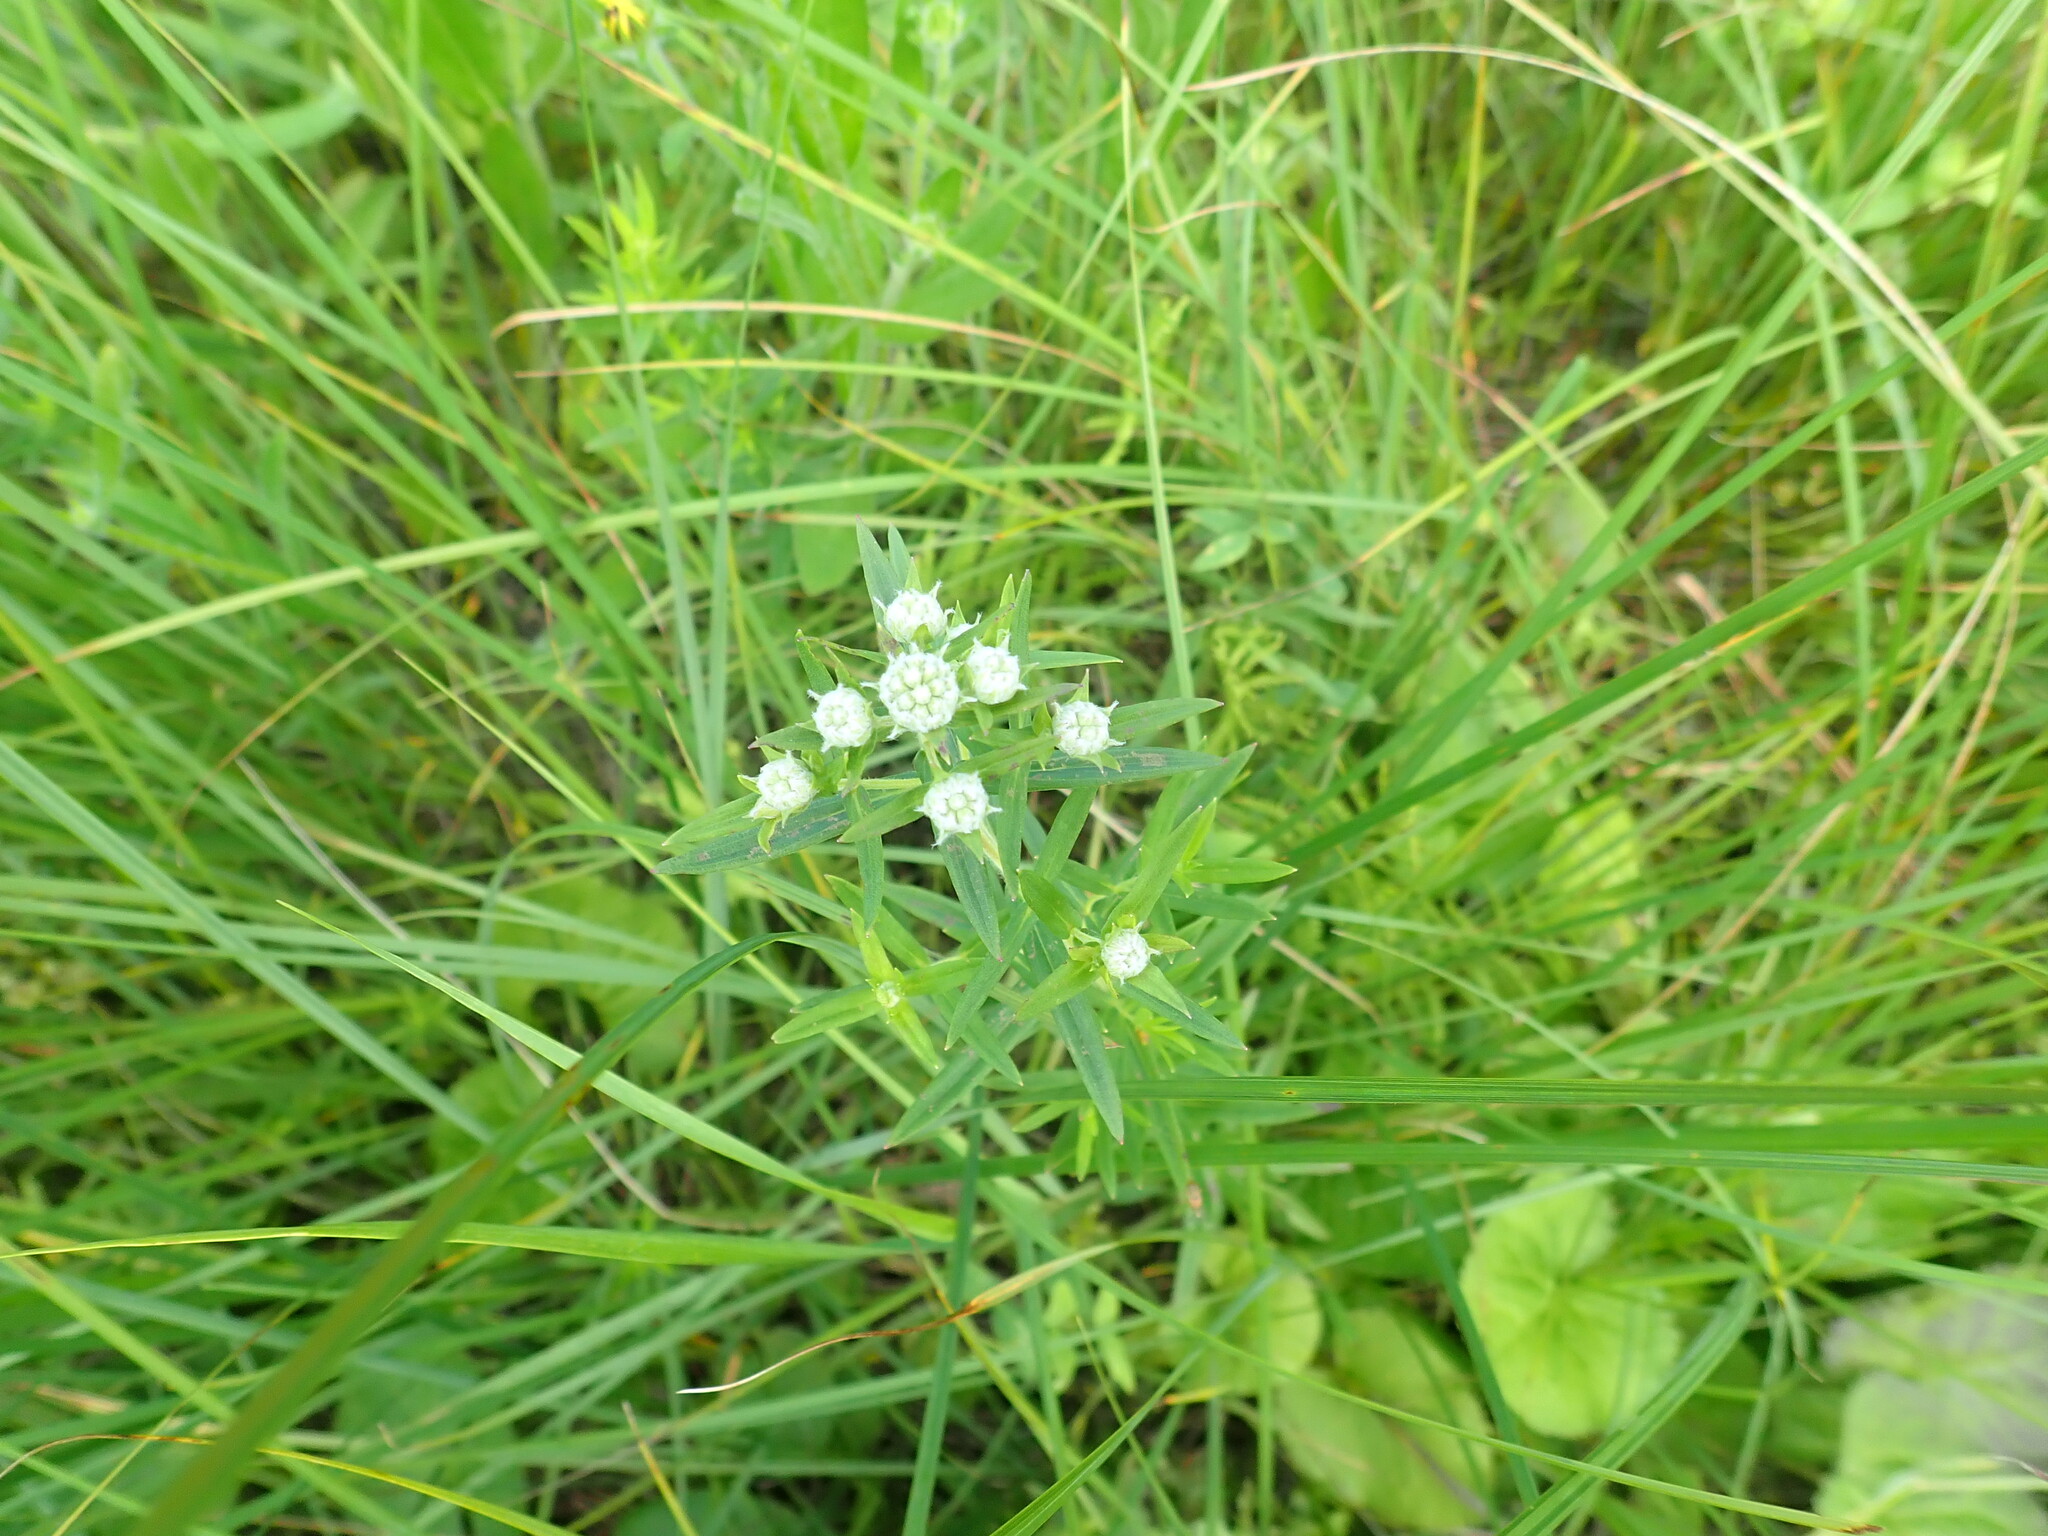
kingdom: Plantae
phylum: Tracheophyta
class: Magnoliopsida
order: Lamiales
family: Lamiaceae
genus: Pycnanthemum
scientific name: Pycnanthemum virginianum
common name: Virginia mountain-mint
